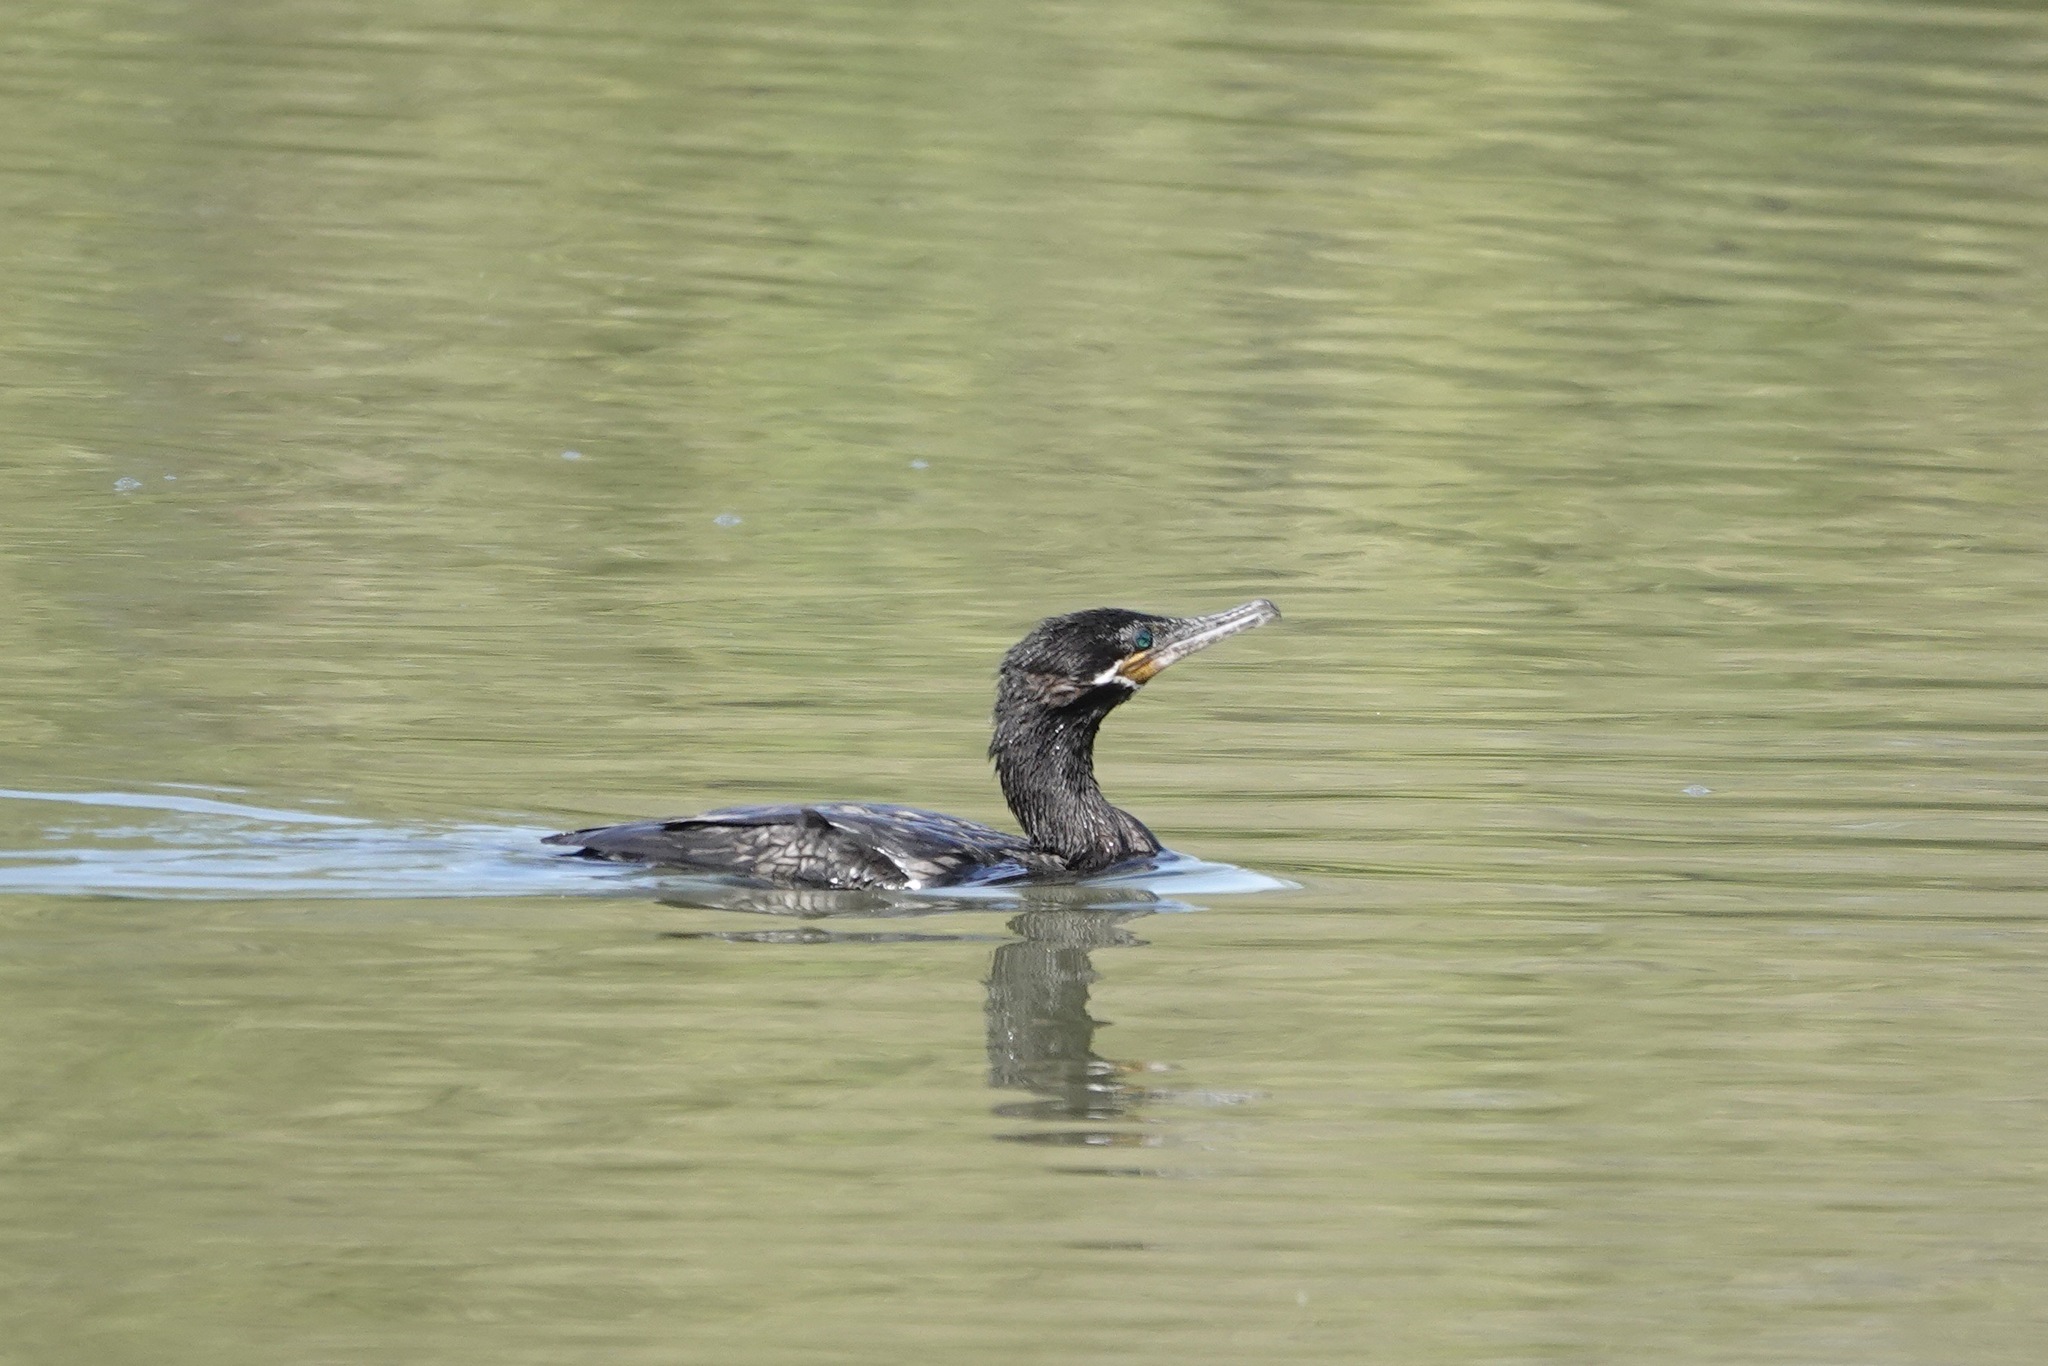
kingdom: Animalia
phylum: Chordata
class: Aves
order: Suliformes
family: Phalacrocoracidae
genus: Phalacrocorax
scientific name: Phalacrocorax brasilianus
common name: Neotropic cormorant
